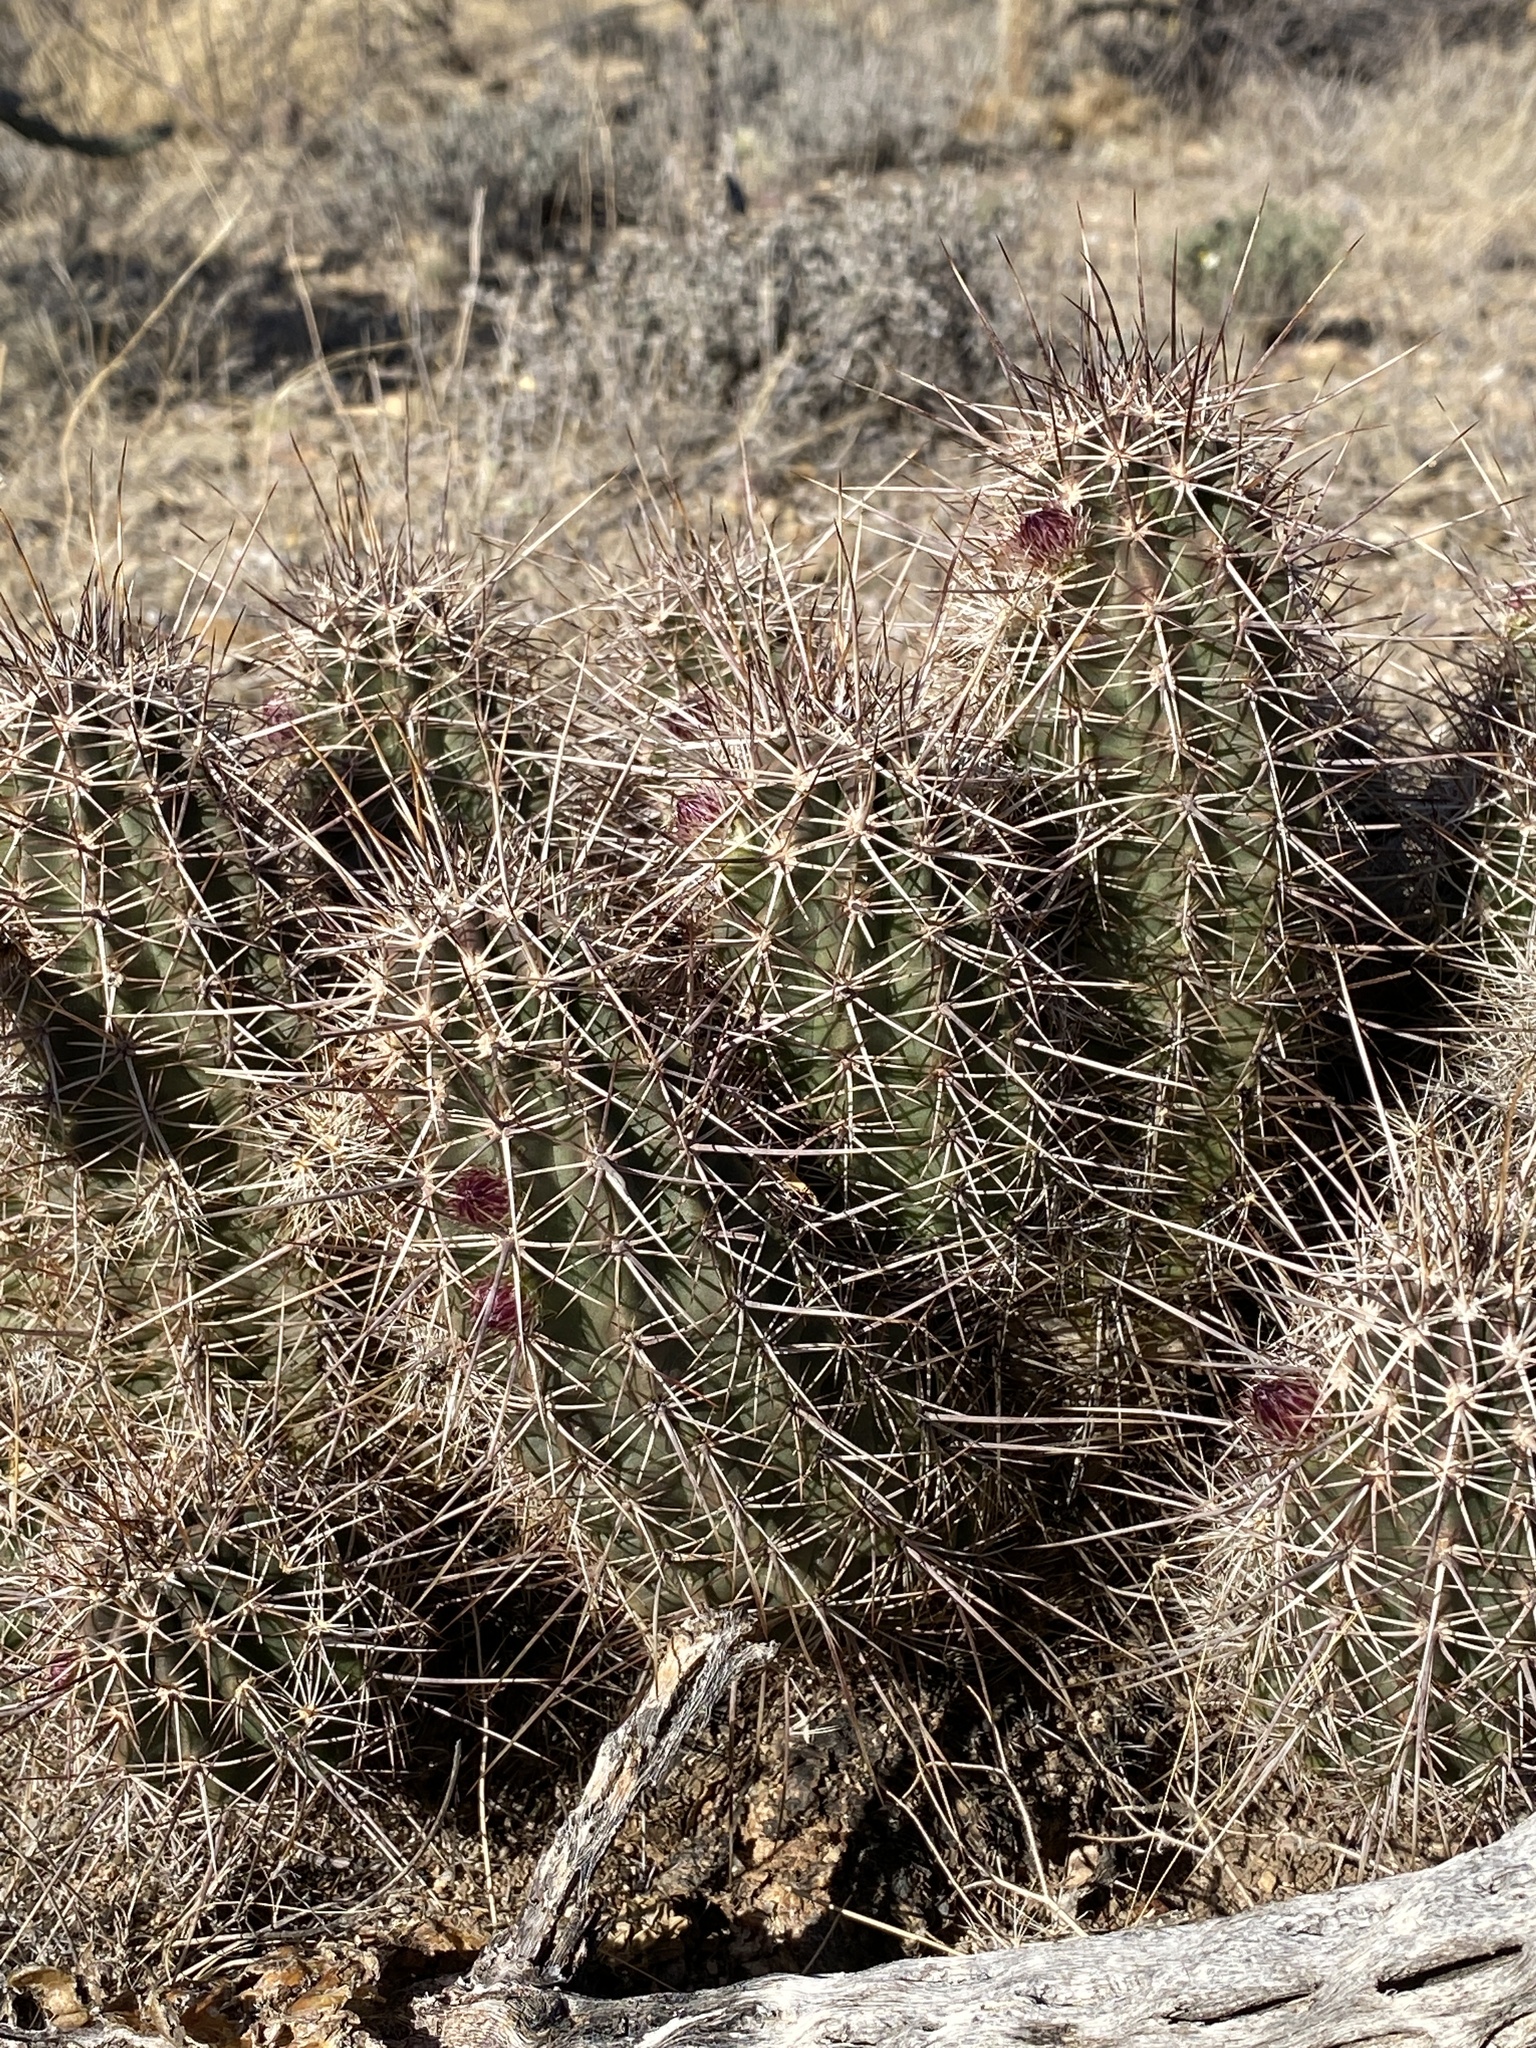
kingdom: Plantae
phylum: Tracheophyta
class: Magnoliopsida
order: Caryophyllales
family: Cactaceae
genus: Echinocereus
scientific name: Echinocereus fasciculatus
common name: Bundle hedgehog
